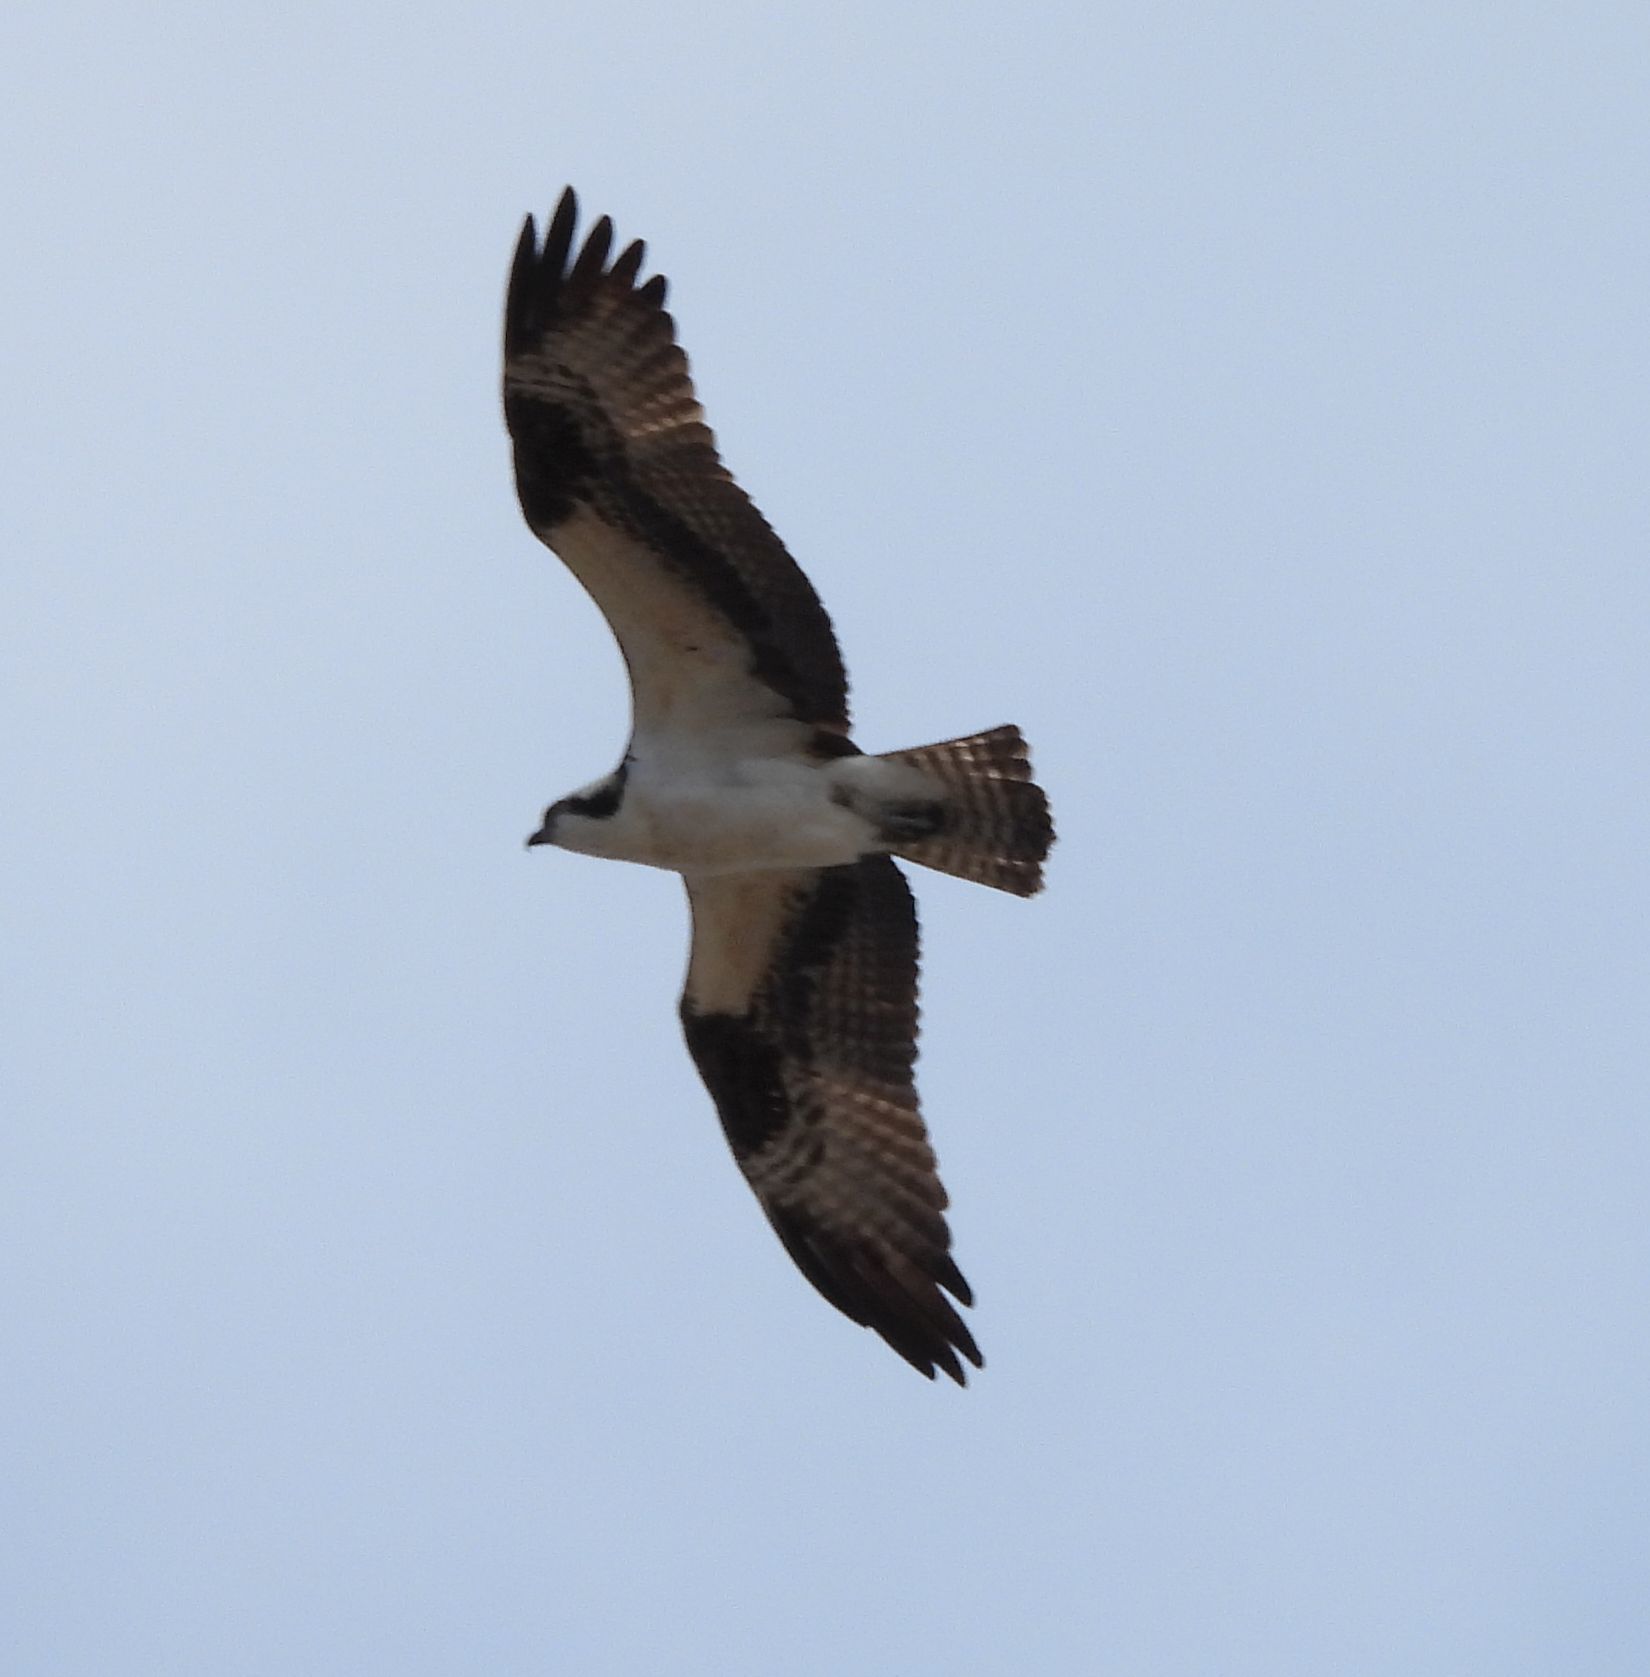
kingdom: Animalia
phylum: Chordata
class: Aves
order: Accipitriformes
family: Pandionidae
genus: Pandion
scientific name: Pandion haliaetus
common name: Osprey
